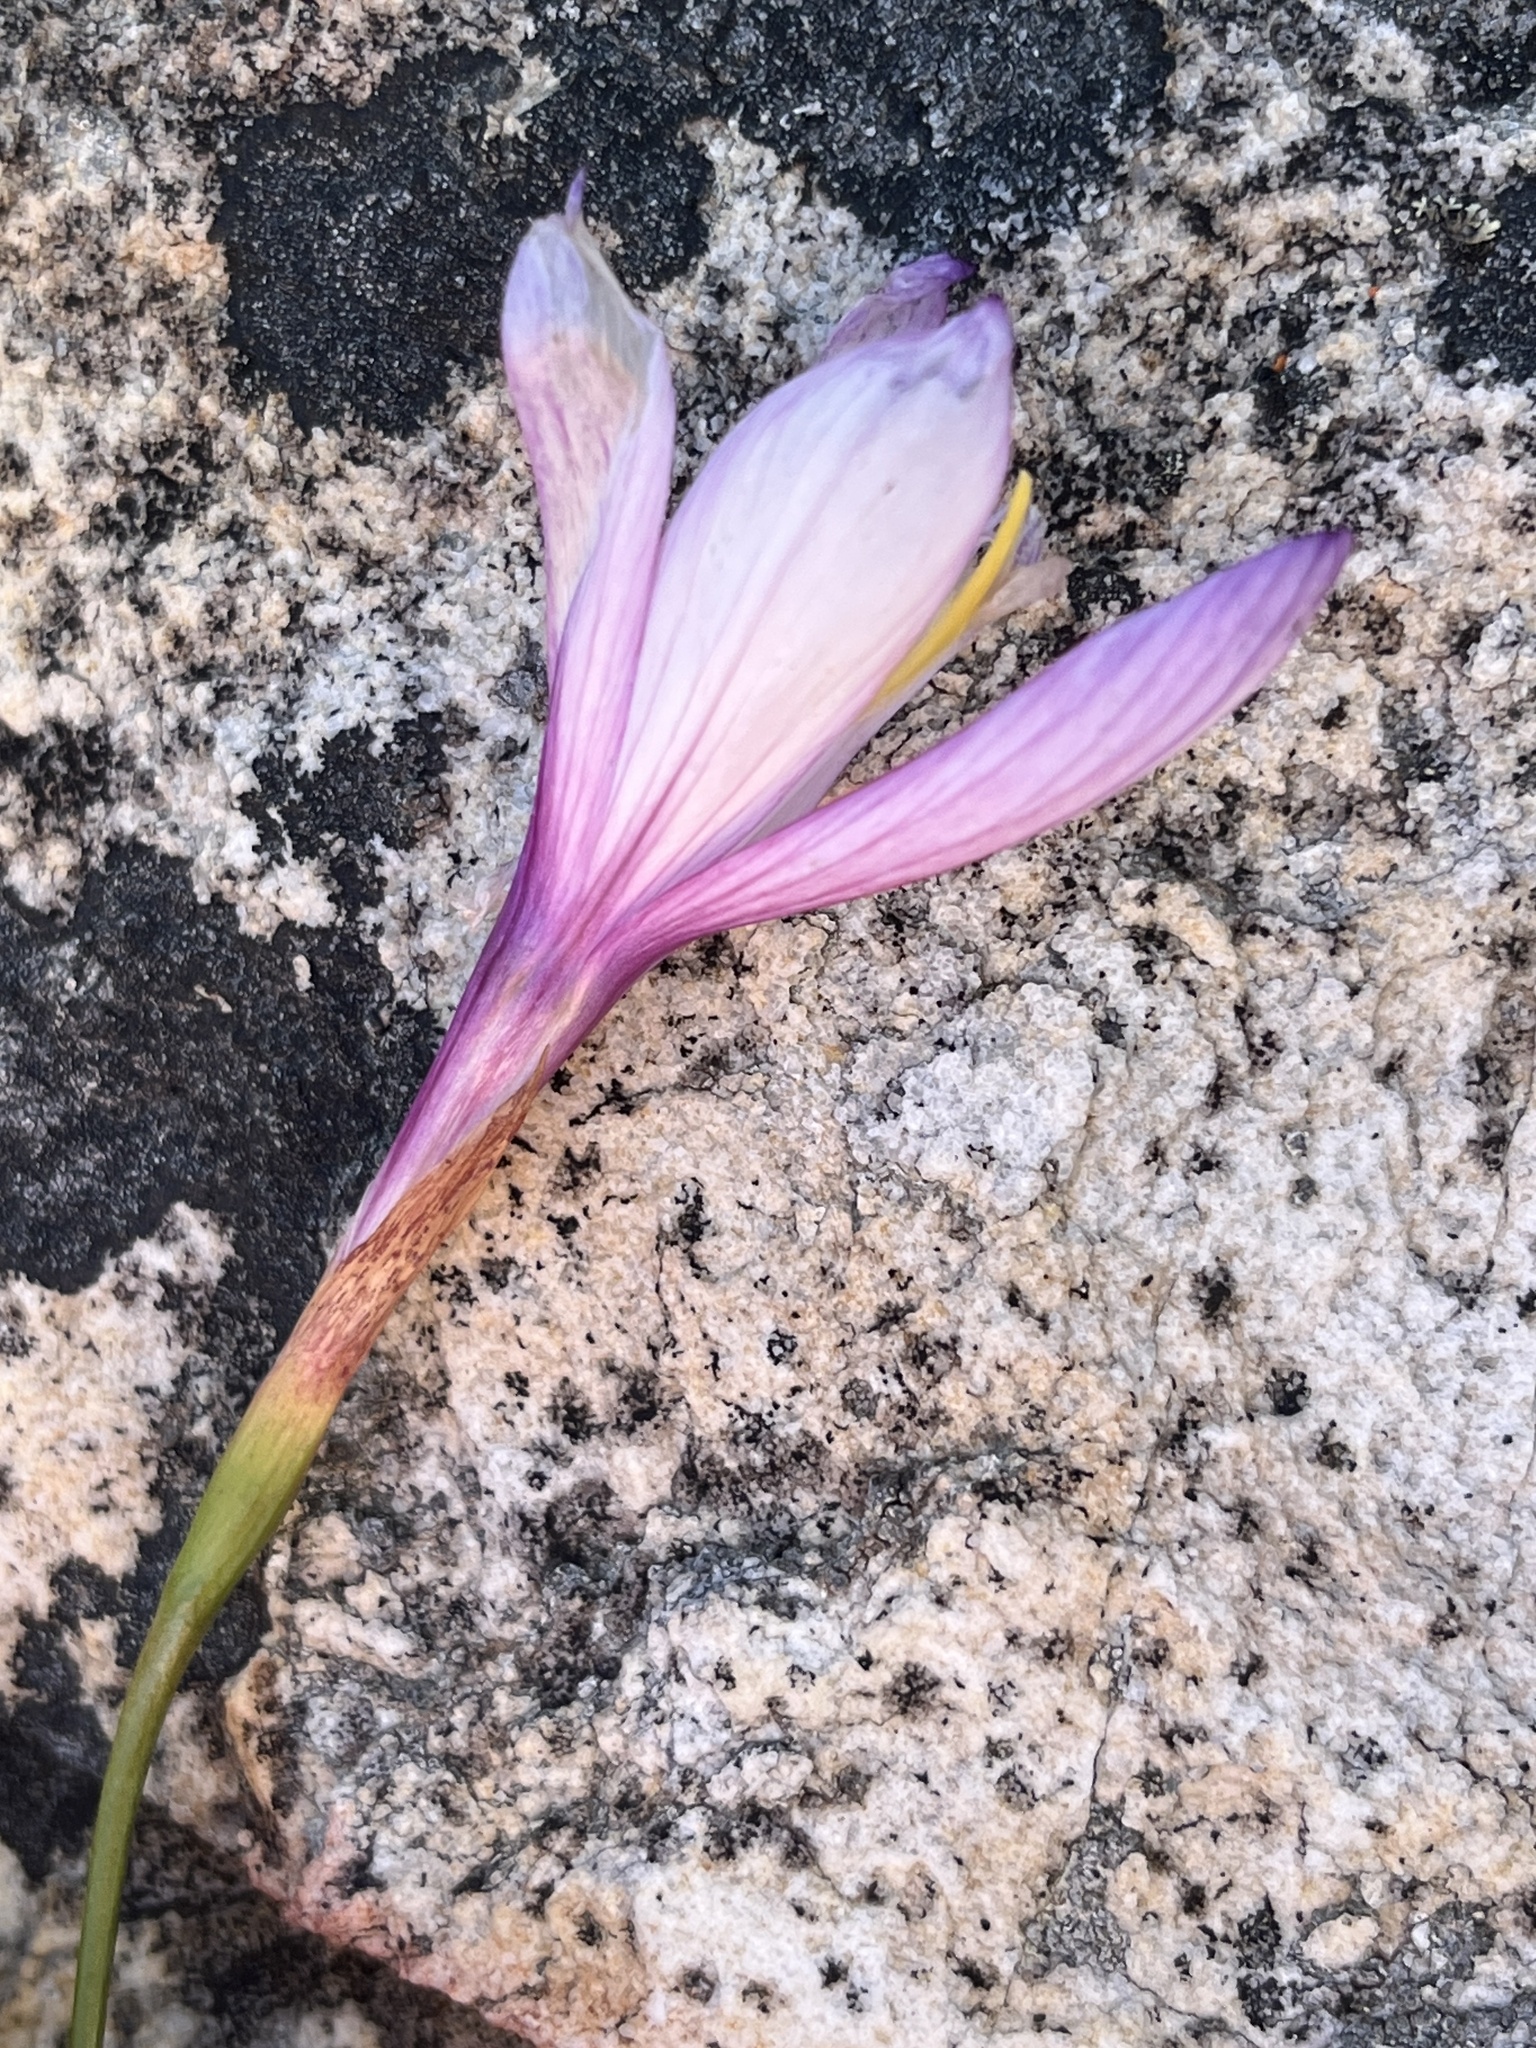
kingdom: Plantae
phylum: Tracheophyta
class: Liliopsida
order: Asparagales
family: Iridaceae
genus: Geissorhiza
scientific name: Geissorhiza fourcadei
